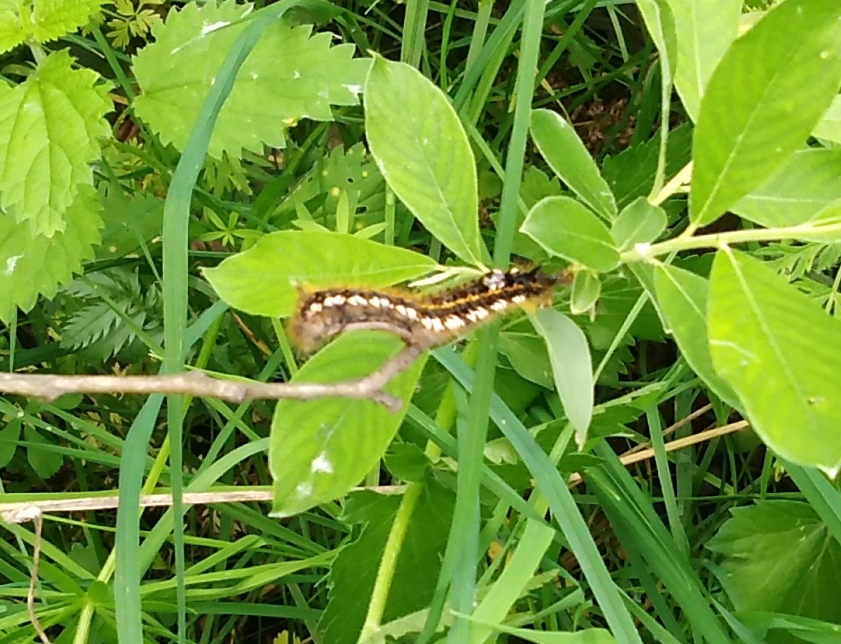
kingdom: Animalia
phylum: Arthropoda
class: Insecta
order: Lepidoptera
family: Lasiocampidae
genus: Euthrix
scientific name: Euthrix potatoria
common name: Drinker
